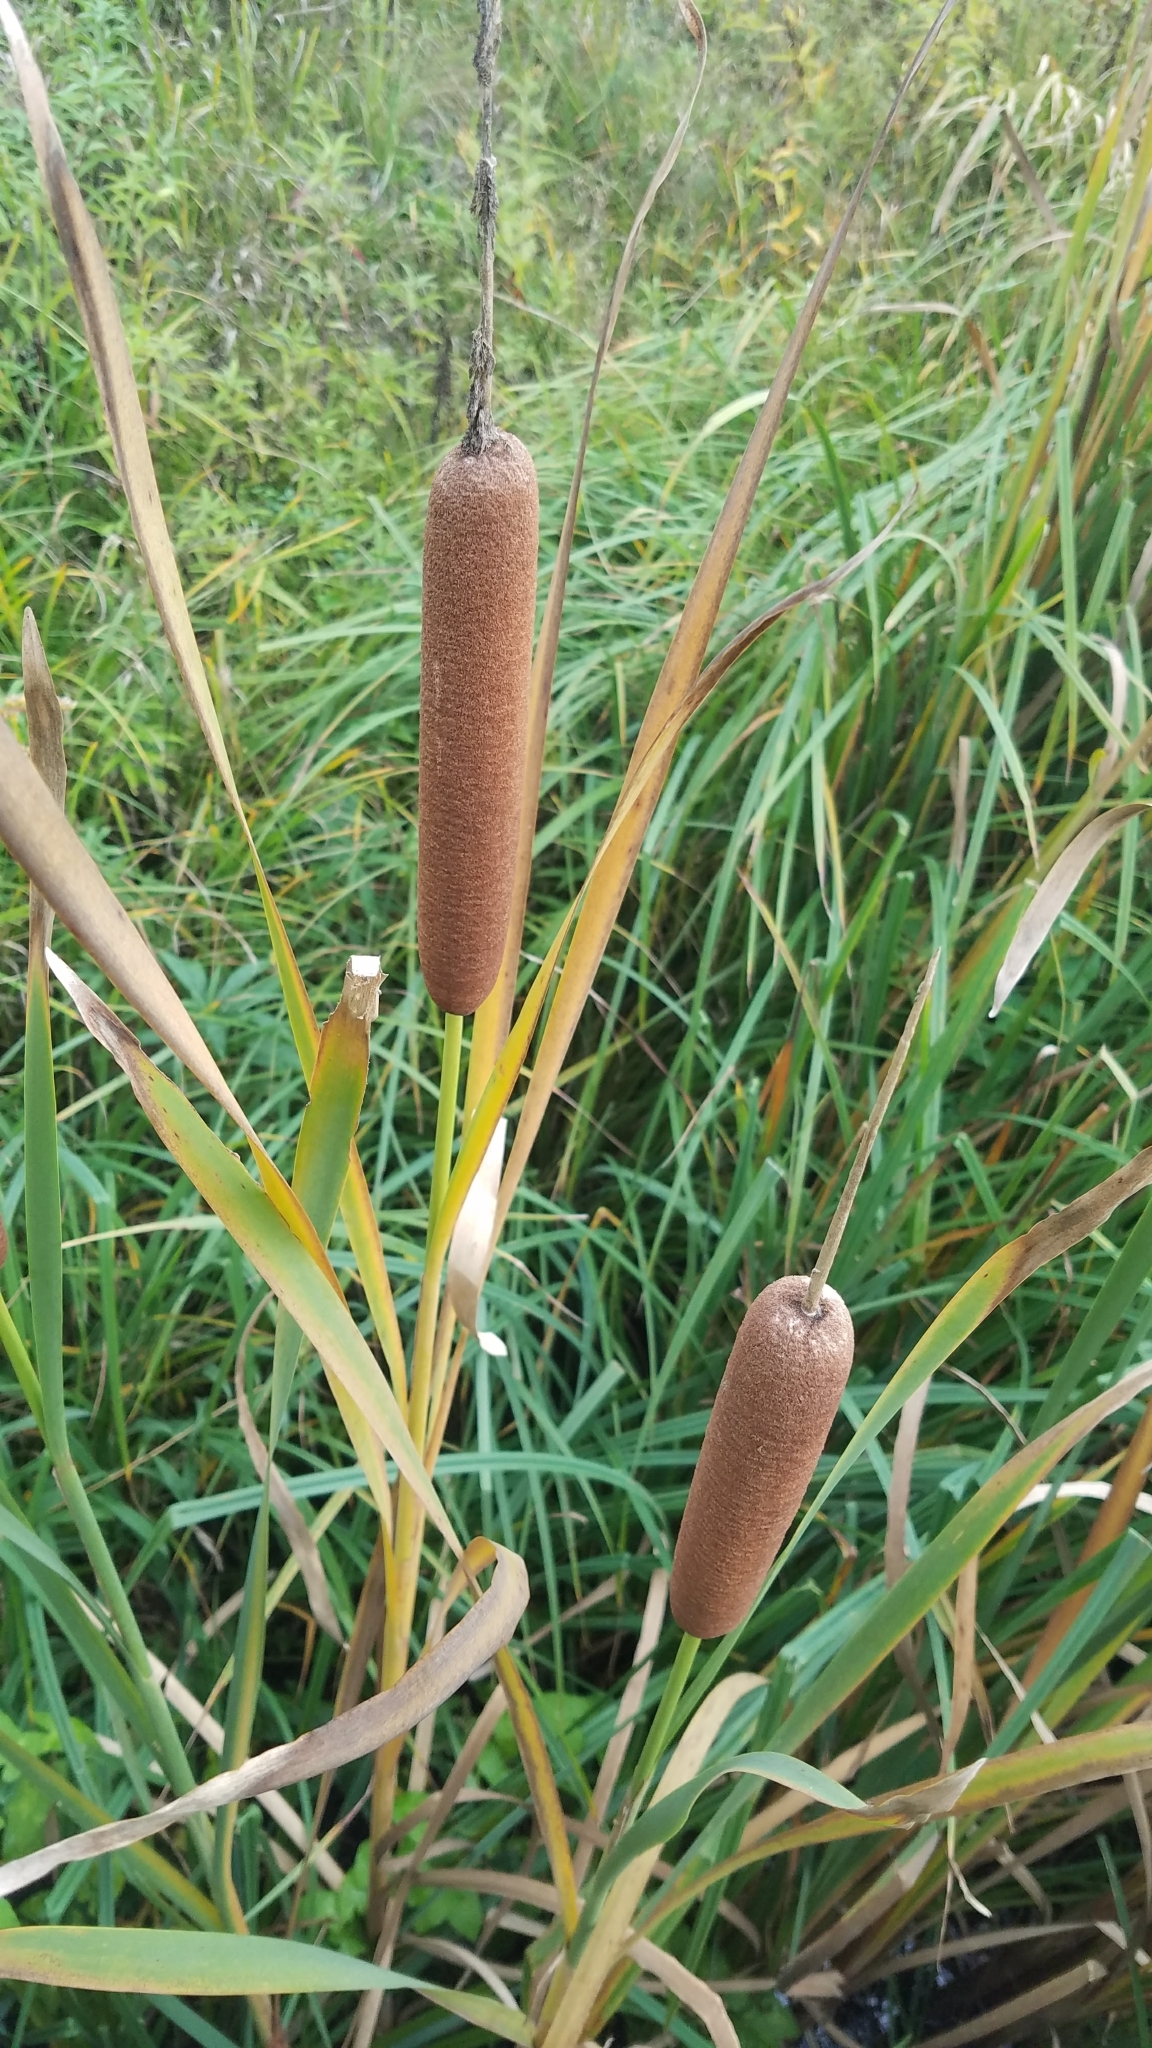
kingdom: Plantae
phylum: Tracheophyta
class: Liliopsida
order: Poales
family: Typhaceae
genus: Typha
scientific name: Typha latifolia
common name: Broadleaf cattail
